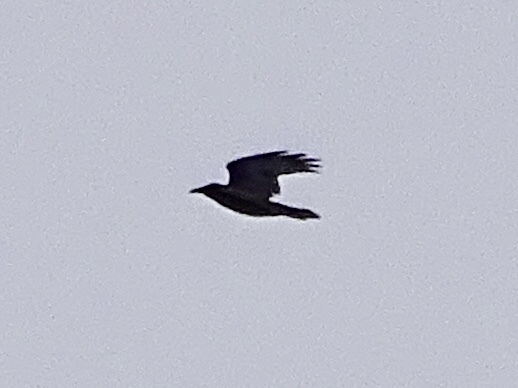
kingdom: Animalia
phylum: Chordata
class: Aves
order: Passeriformes
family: Corvidae
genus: Corvus
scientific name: Corvus corax
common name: Common raven
